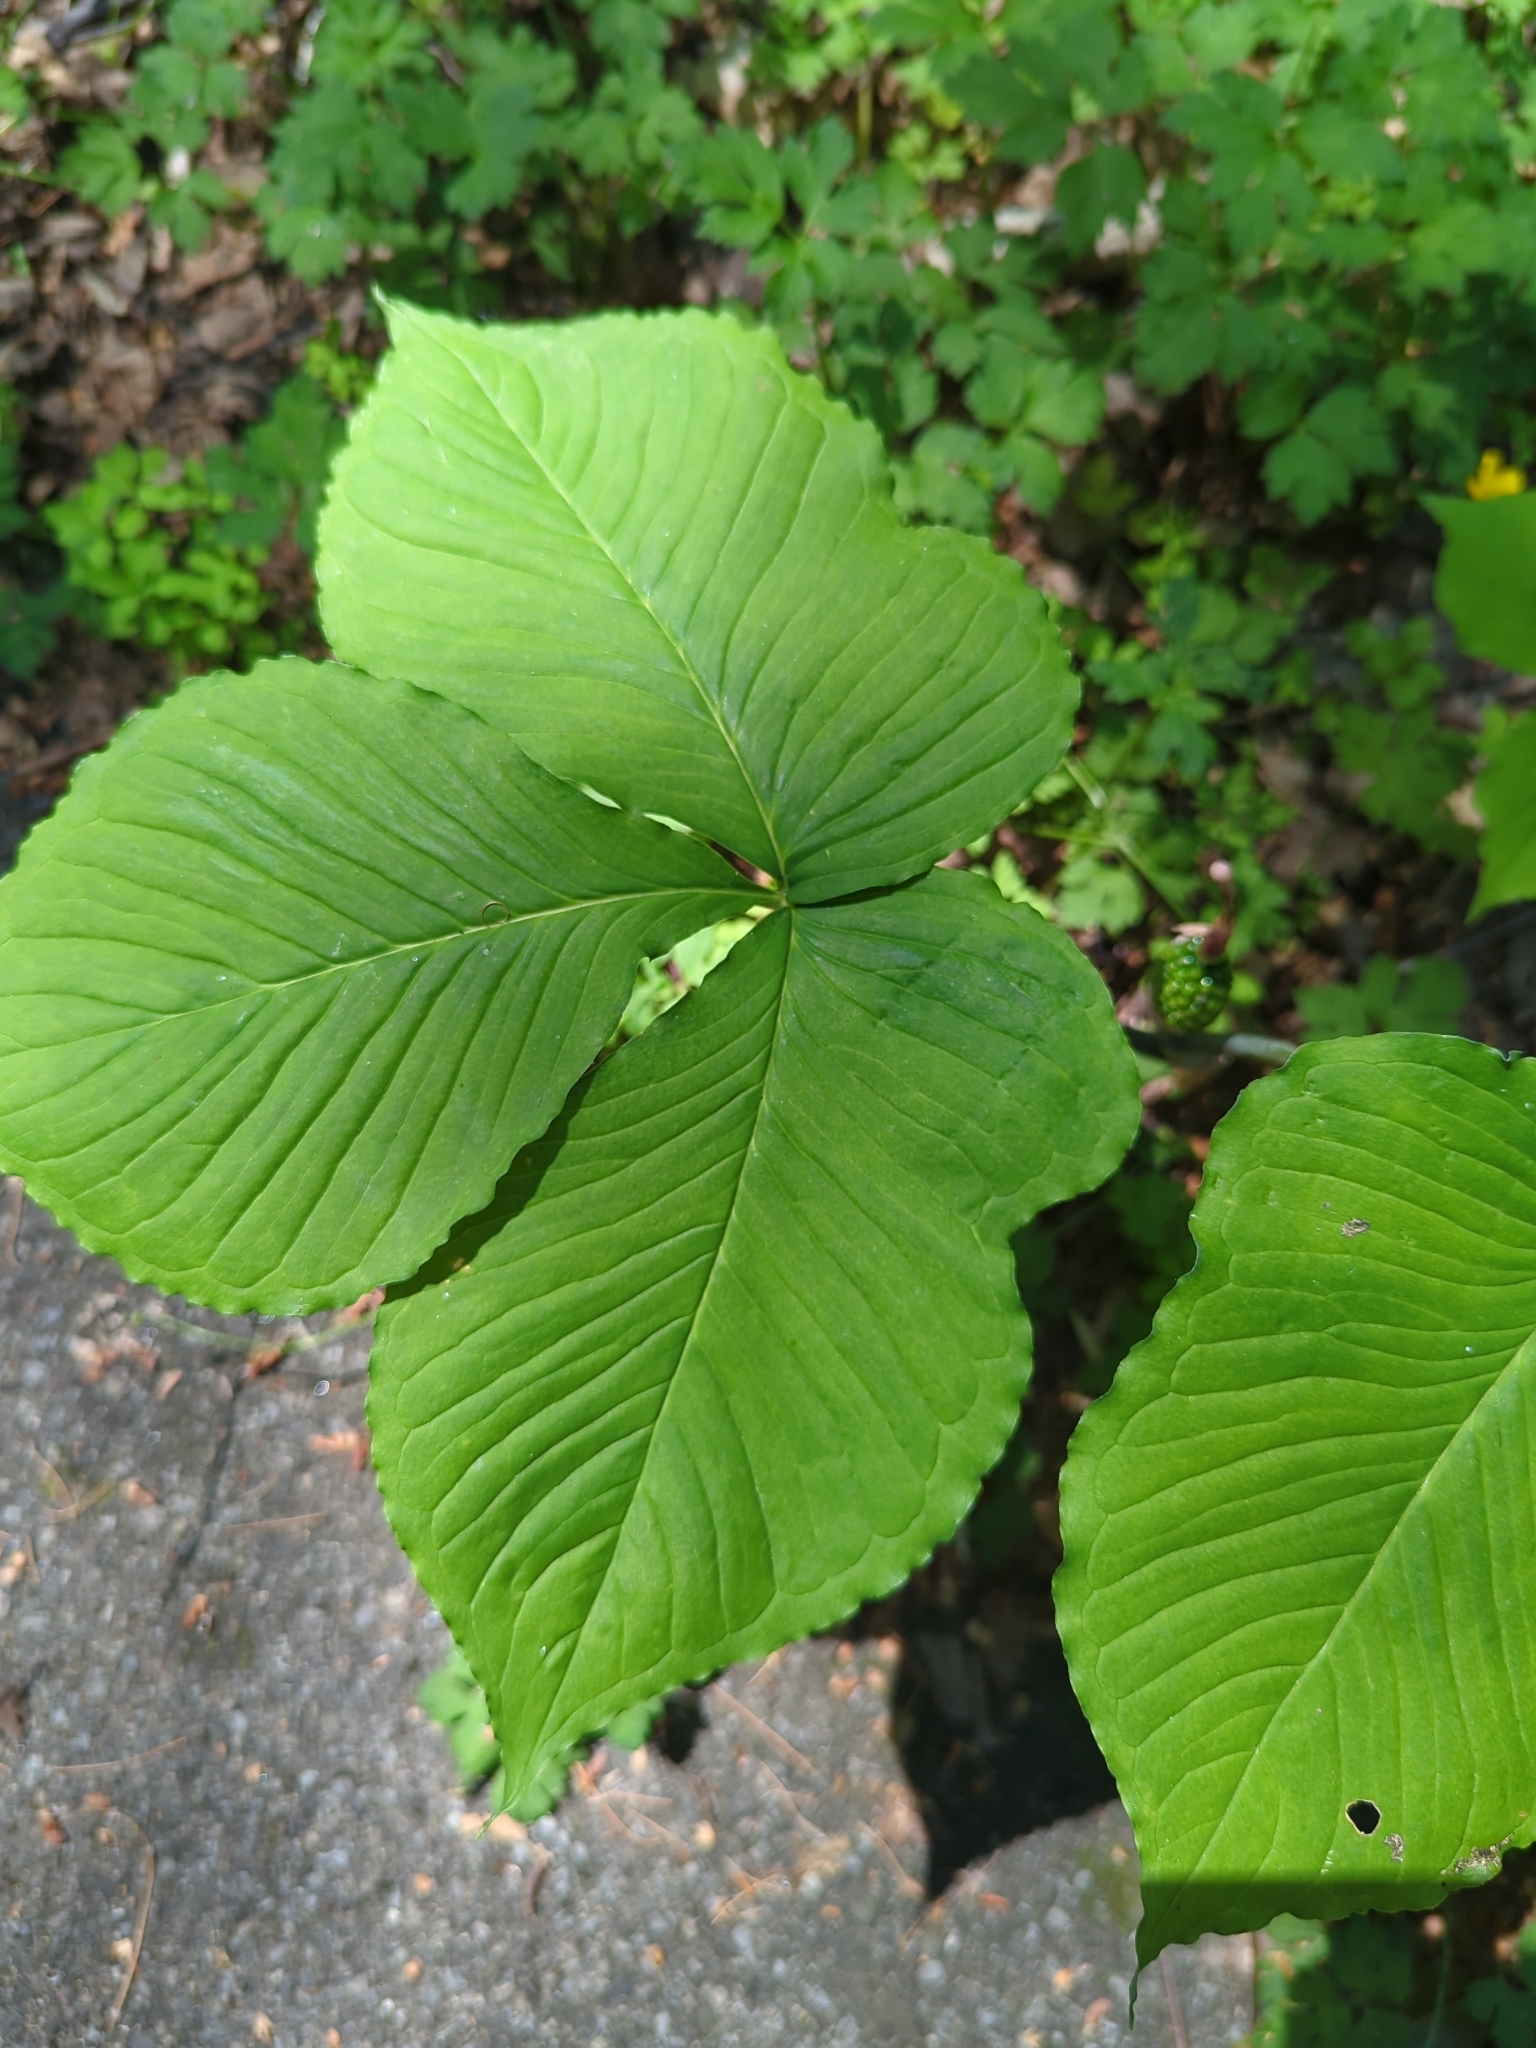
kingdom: Plantae
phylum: Tracheophyta
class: Liliopsida
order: Alismatales
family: Araceae
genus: Arisaema
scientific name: Arisaema triphyllum
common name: Jack-in-the-pulpit
